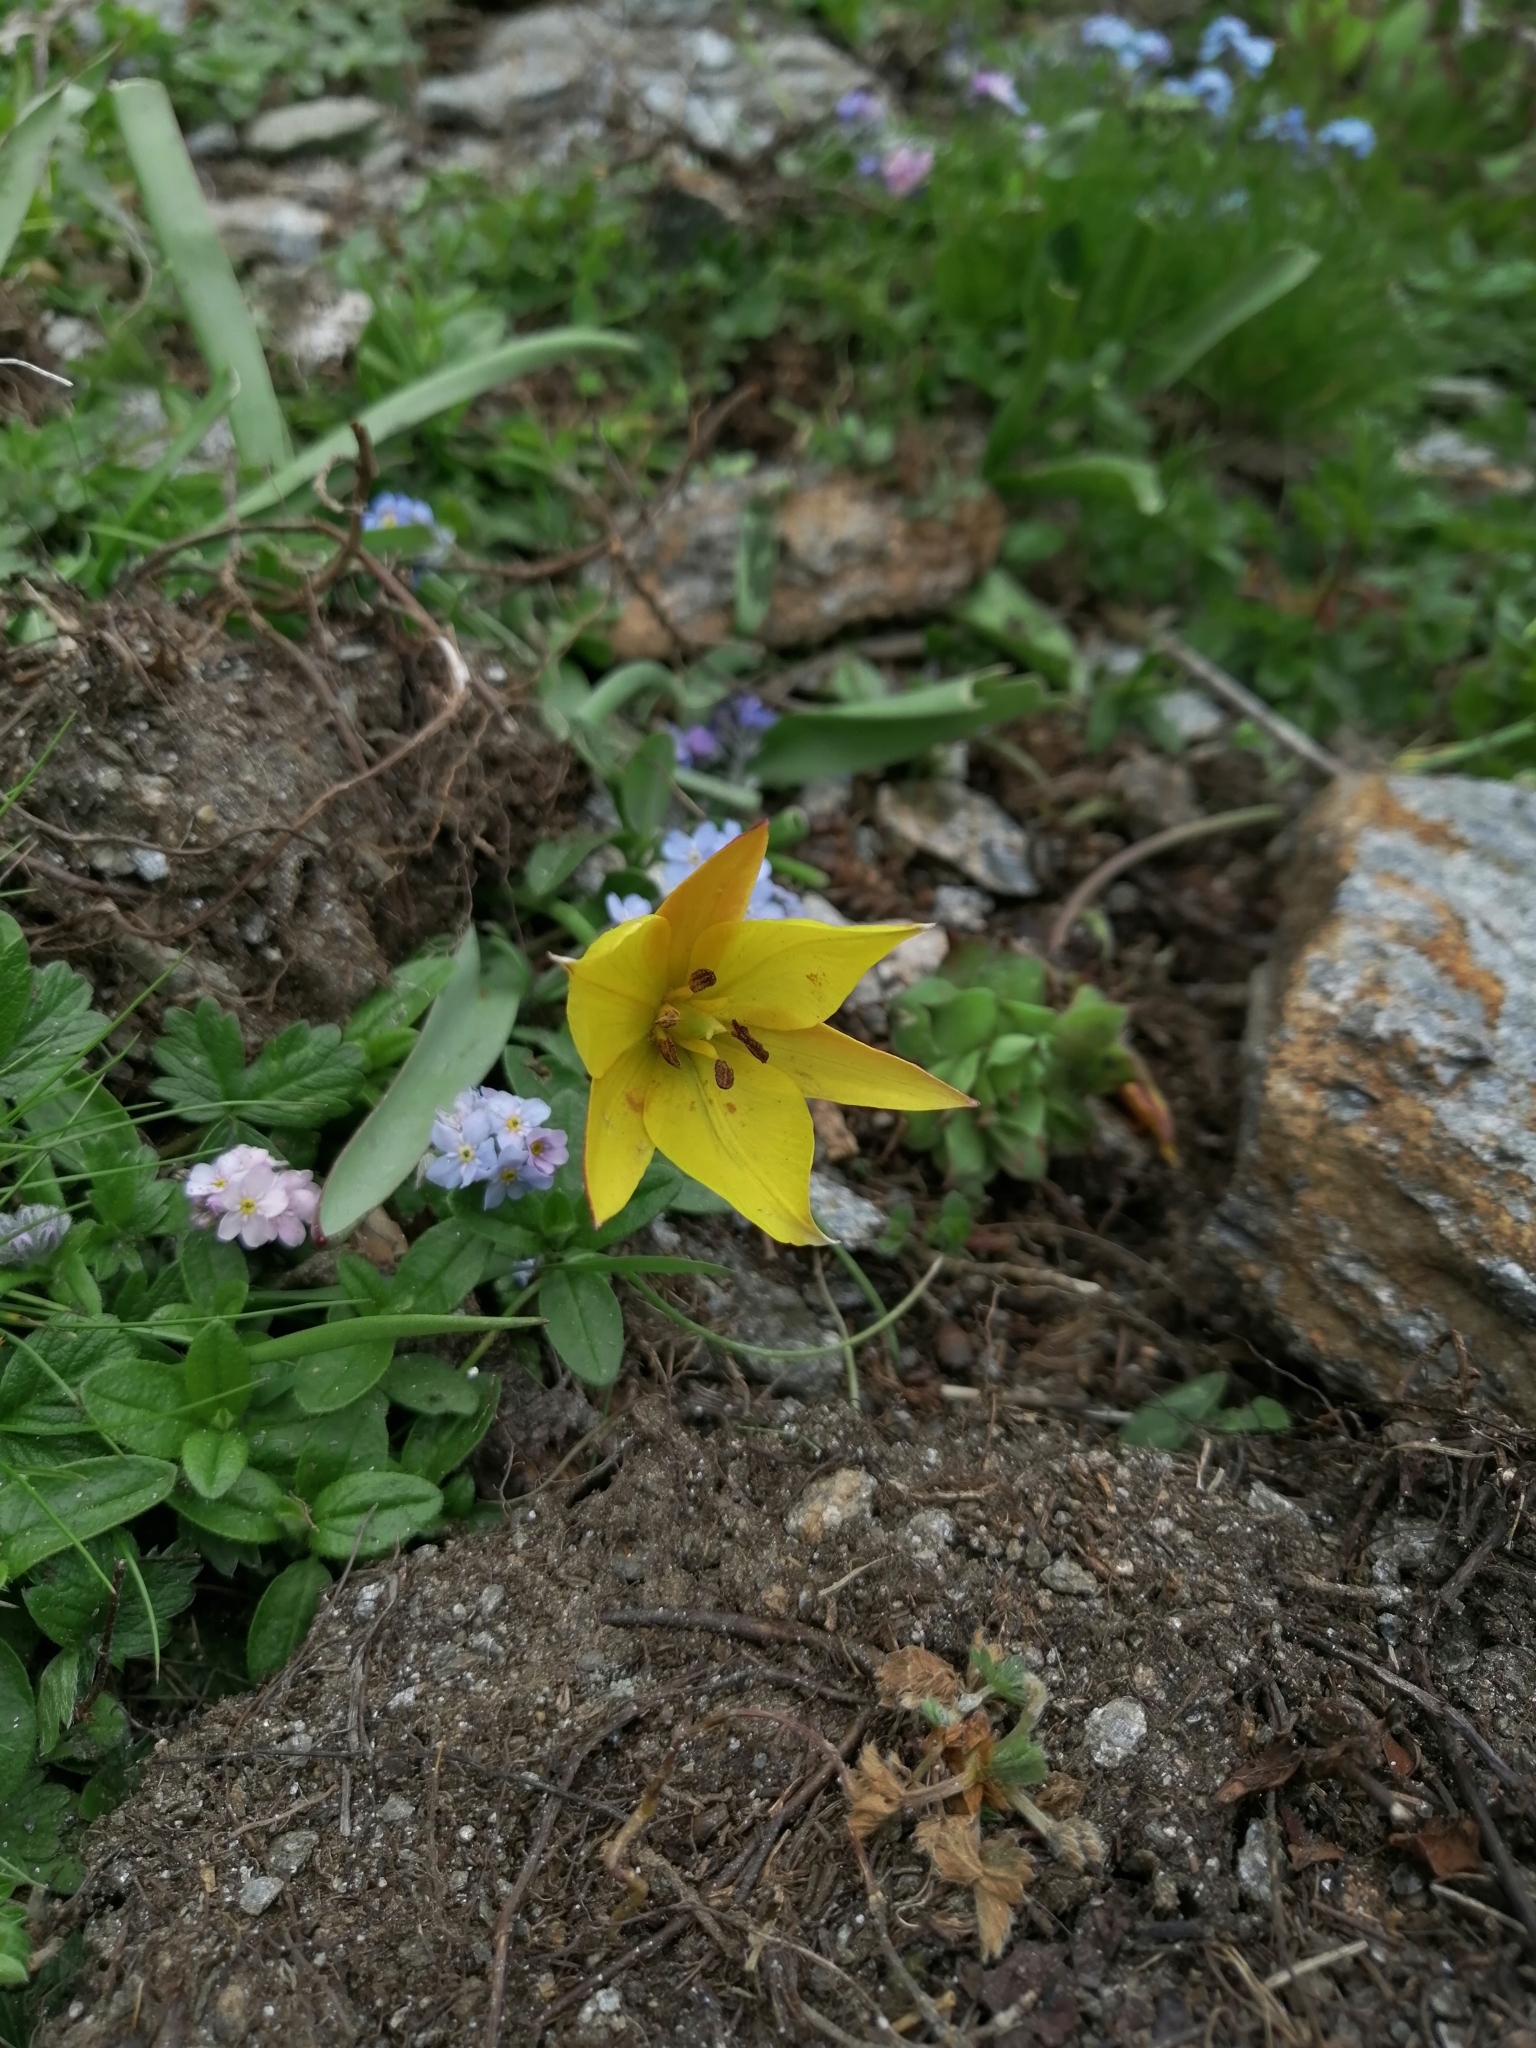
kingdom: Plantae
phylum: Tracheophyta
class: Liliopsida
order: Liliales
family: Liliaceae
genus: Tulipa
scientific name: Tulipa sylvestris
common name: Wild tulip
